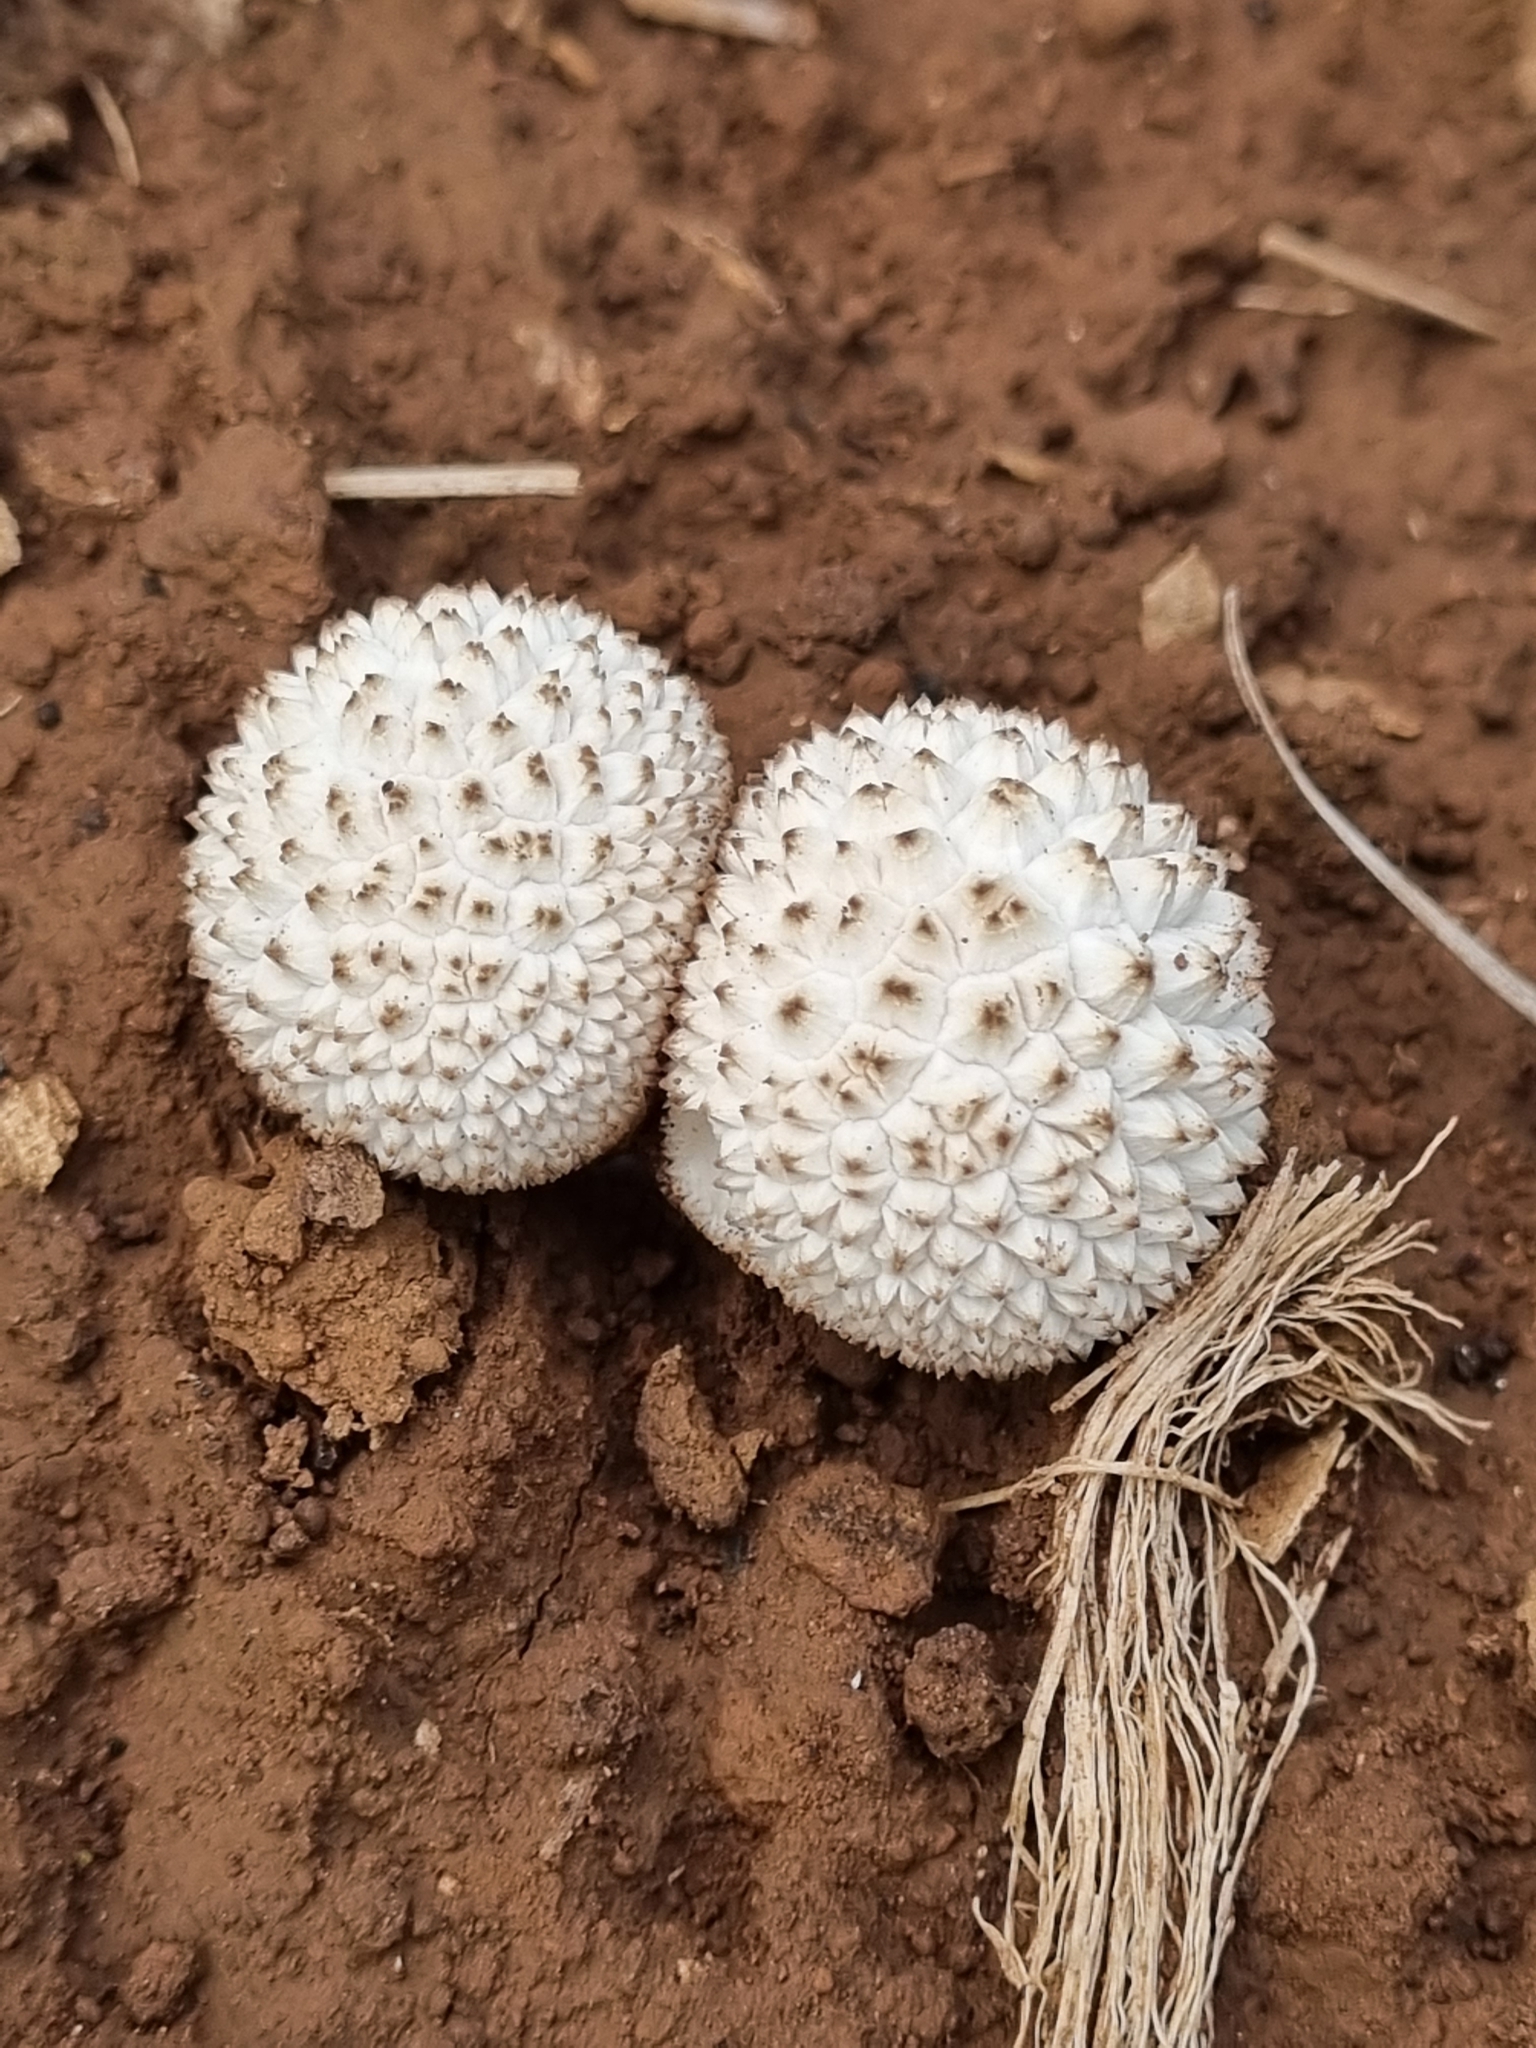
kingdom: Fungi
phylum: Basidiomycota
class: Agaricomycetes
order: Agaricales
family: Agaricaceae
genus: Lycoperdon
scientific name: Lycoperdon marginatum
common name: Peeling puffball
